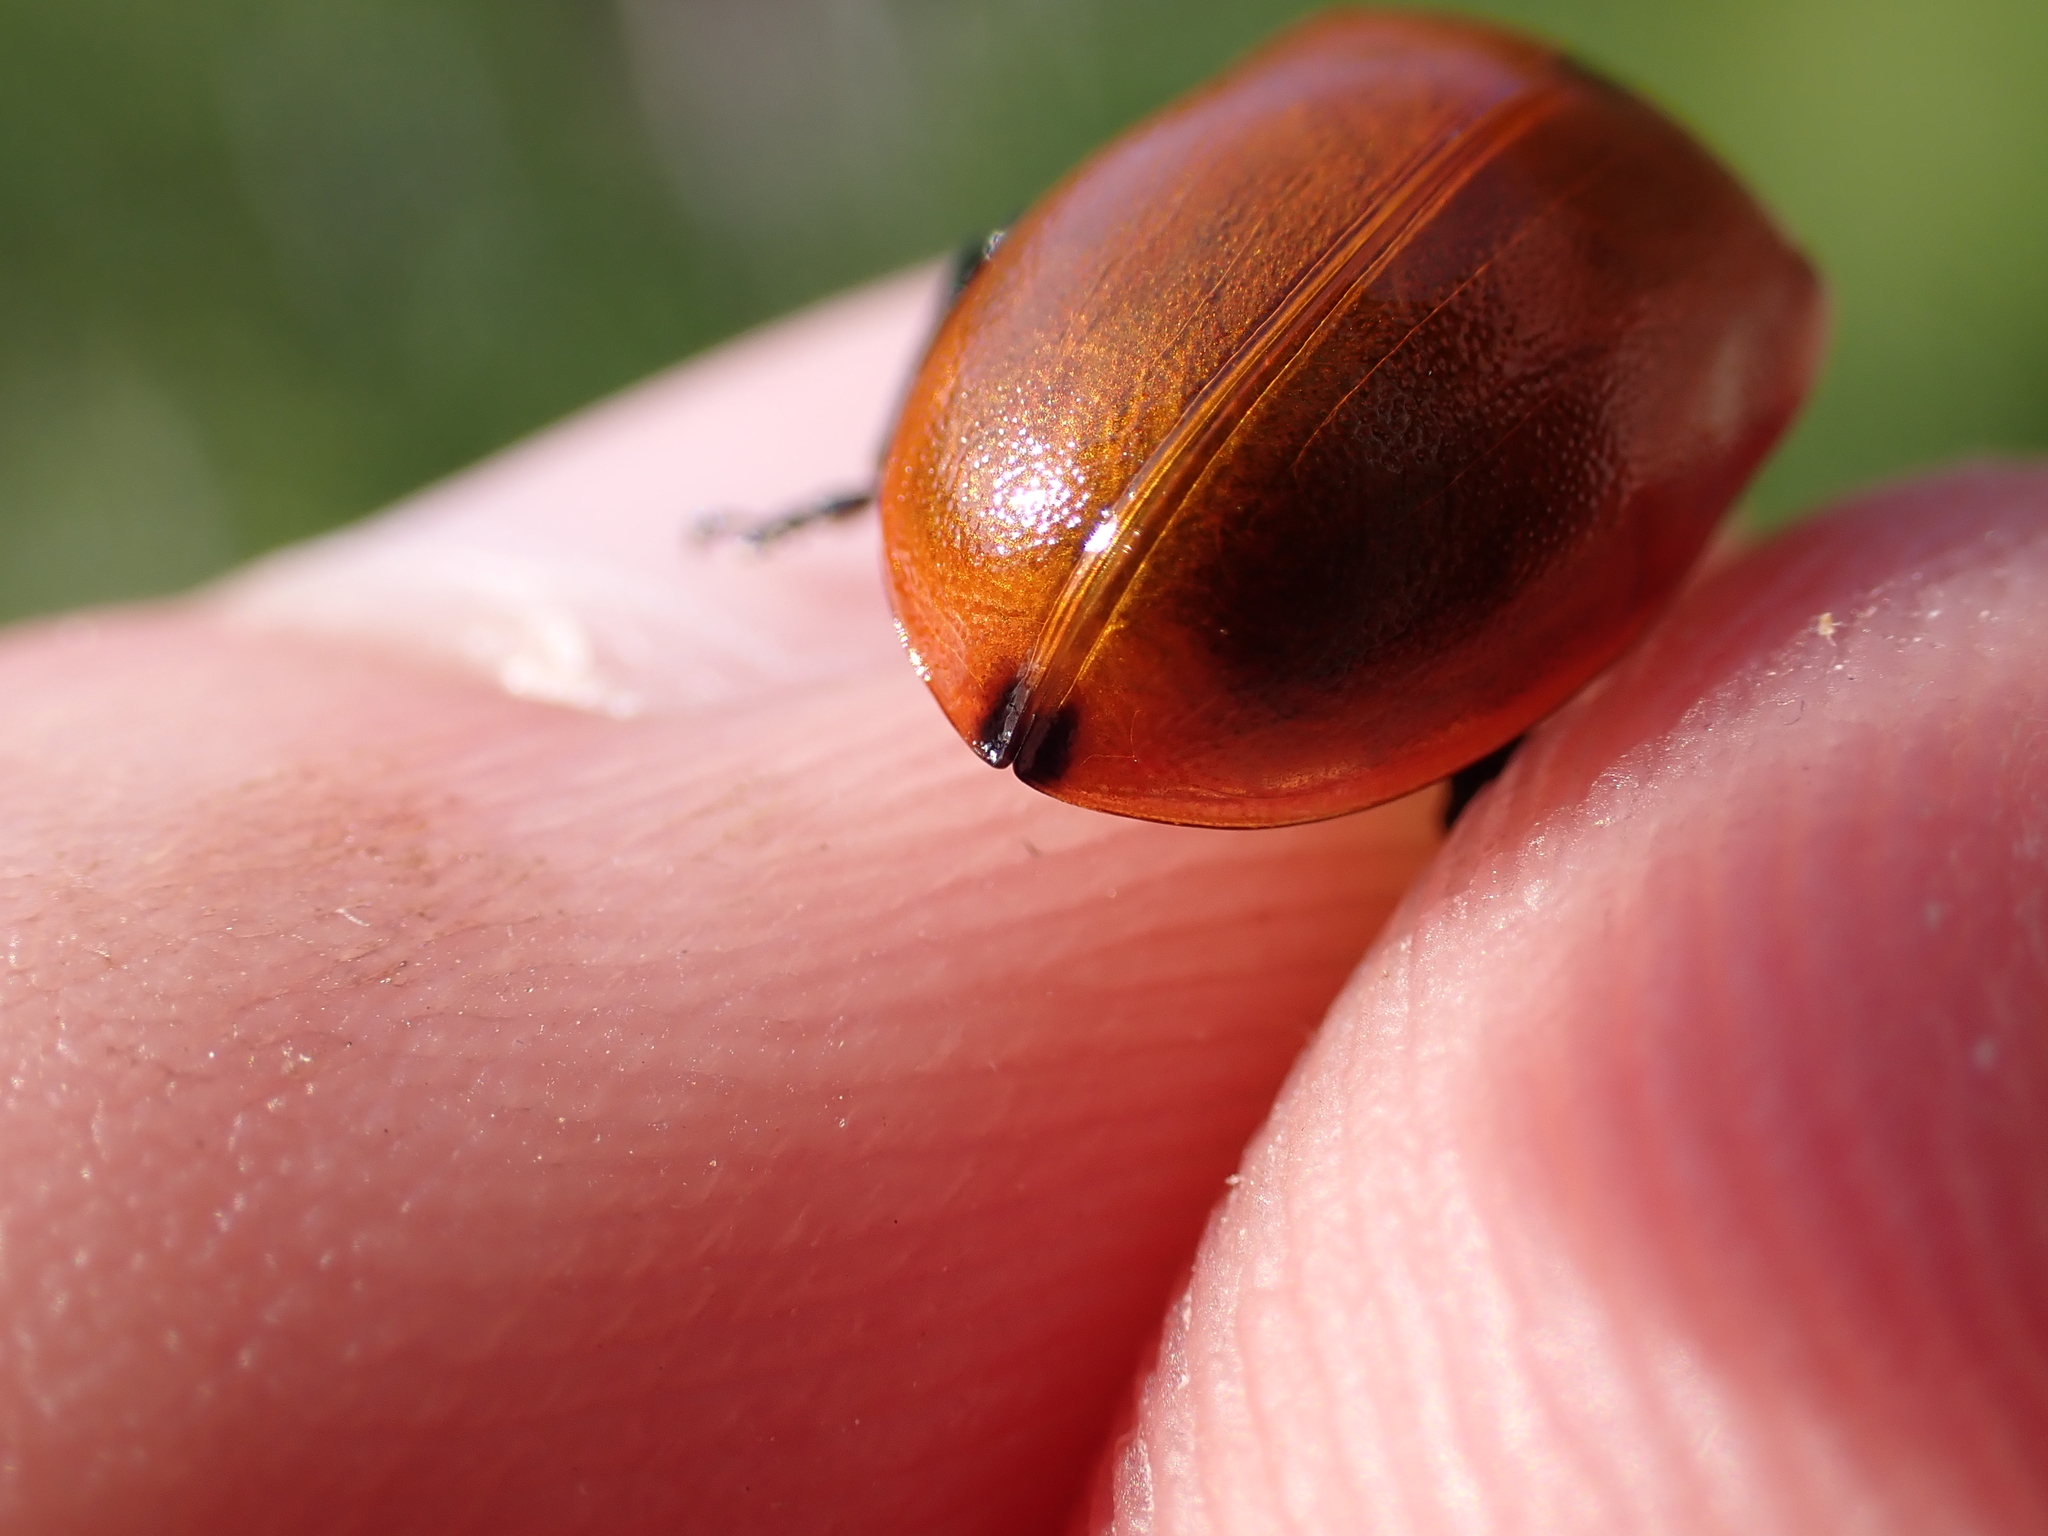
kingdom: Animalia
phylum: Arthropoda
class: Insecta
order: Coleoptera
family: Chrysomelidae
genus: Chrysomela
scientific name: Chrysomela populi
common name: Red poplar leaf beetle
